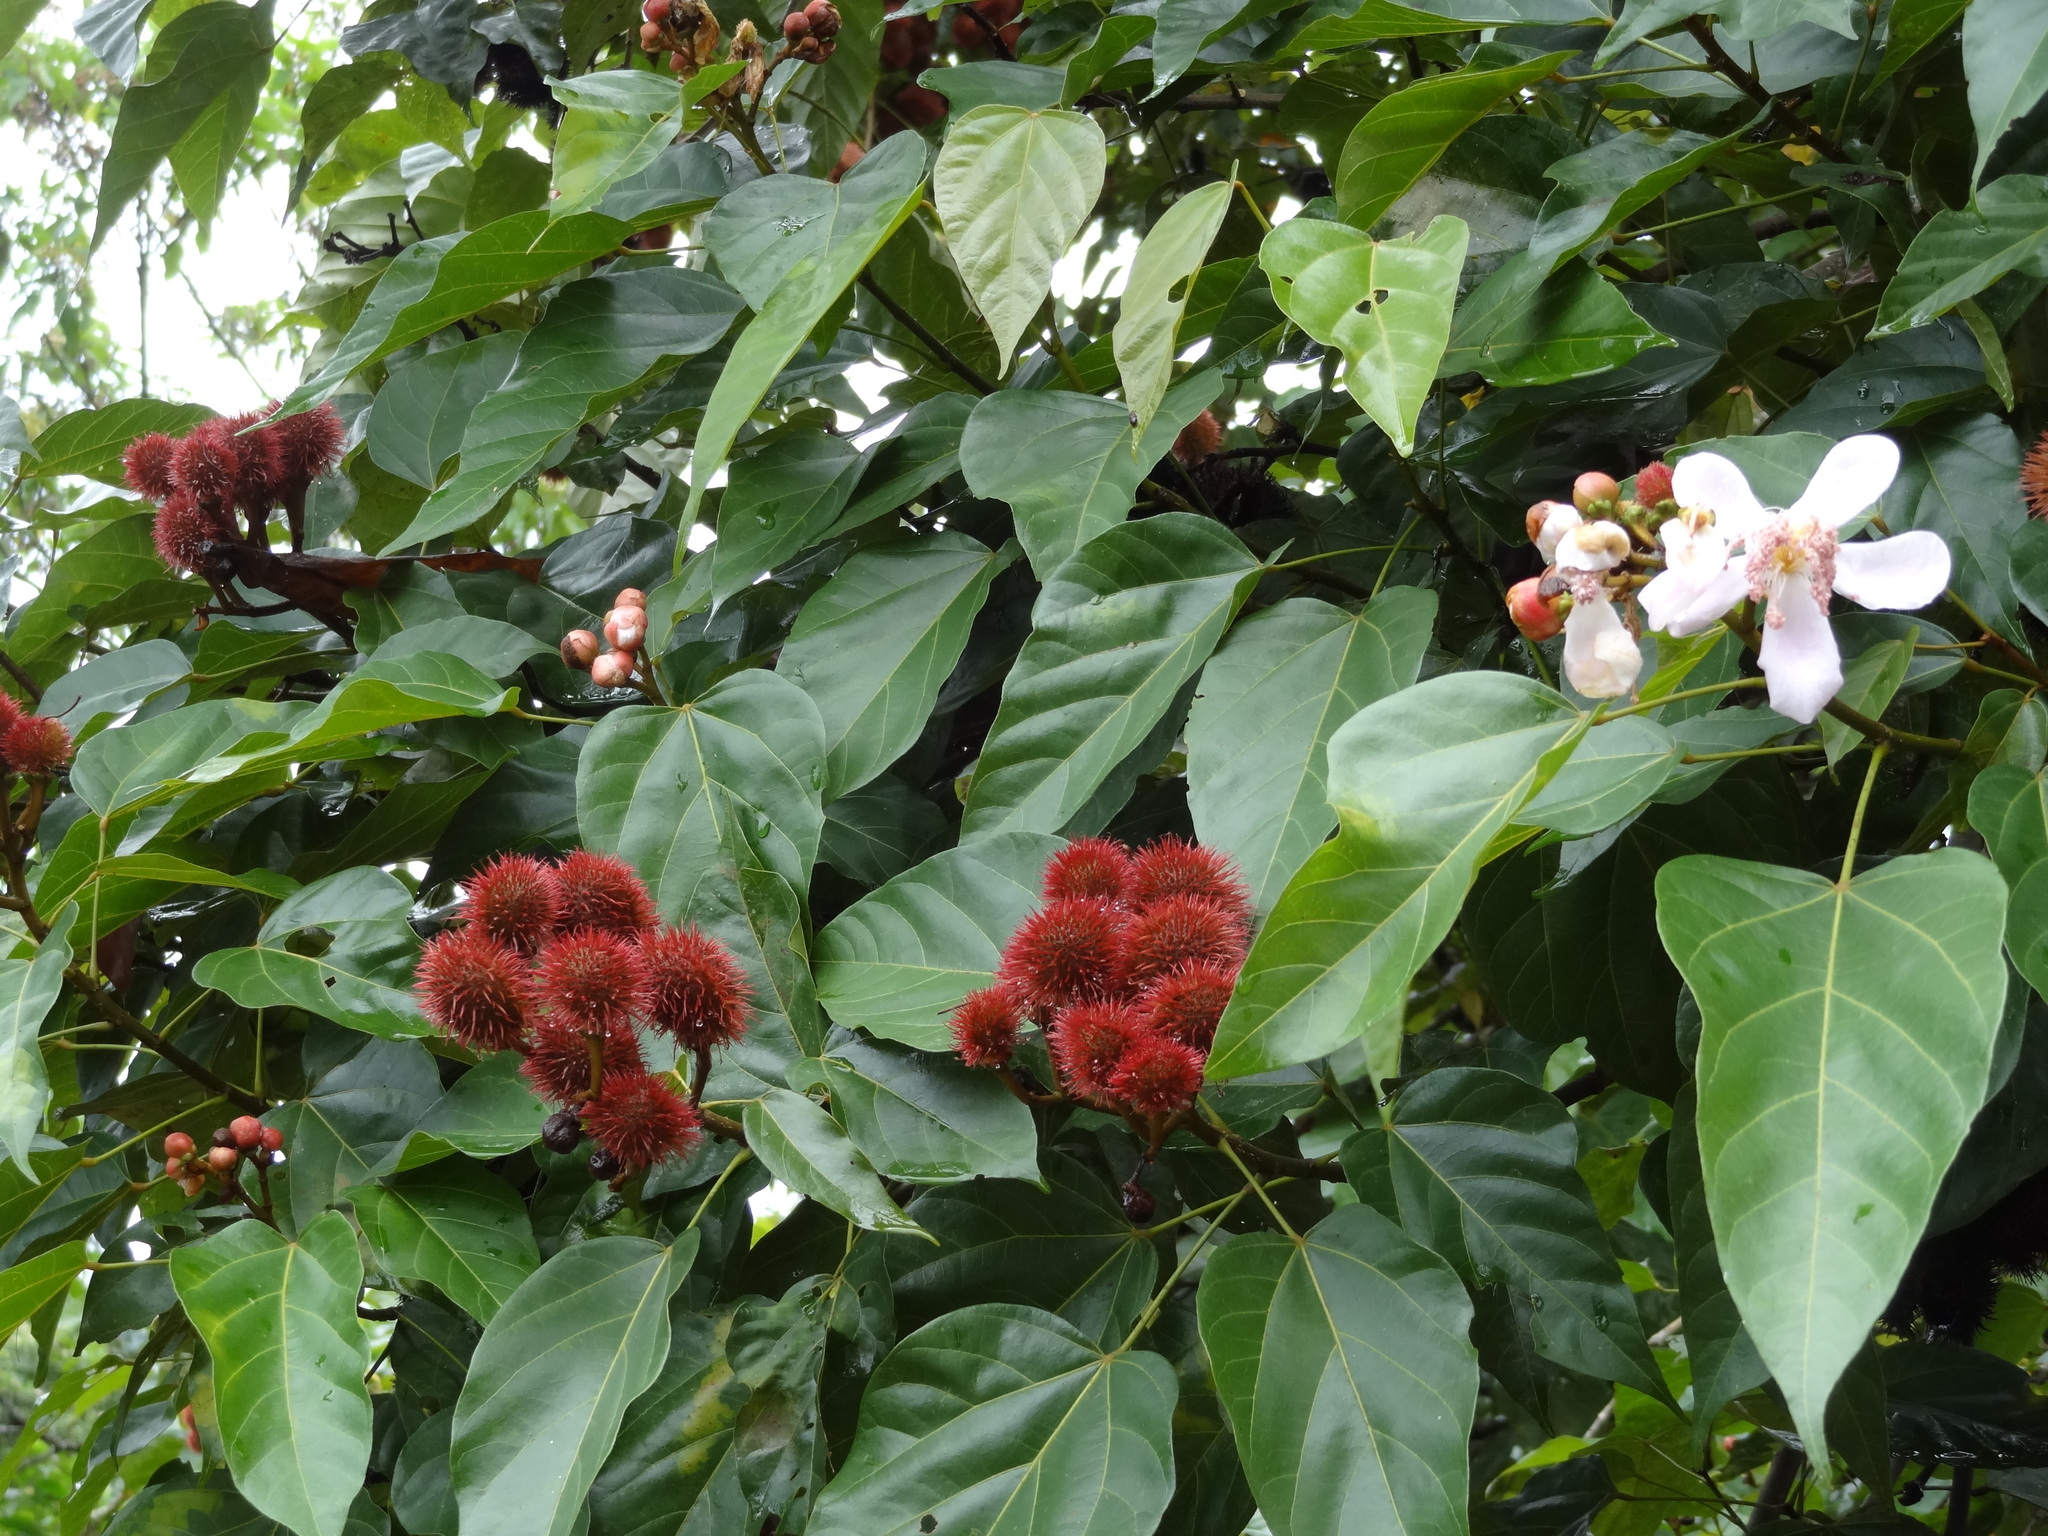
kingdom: Plantae
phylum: Tracheophyta
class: Magnoliopsida
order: Malvales
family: Bixaceae
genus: Bixa
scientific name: Bixa orellana
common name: Lipsticktree
